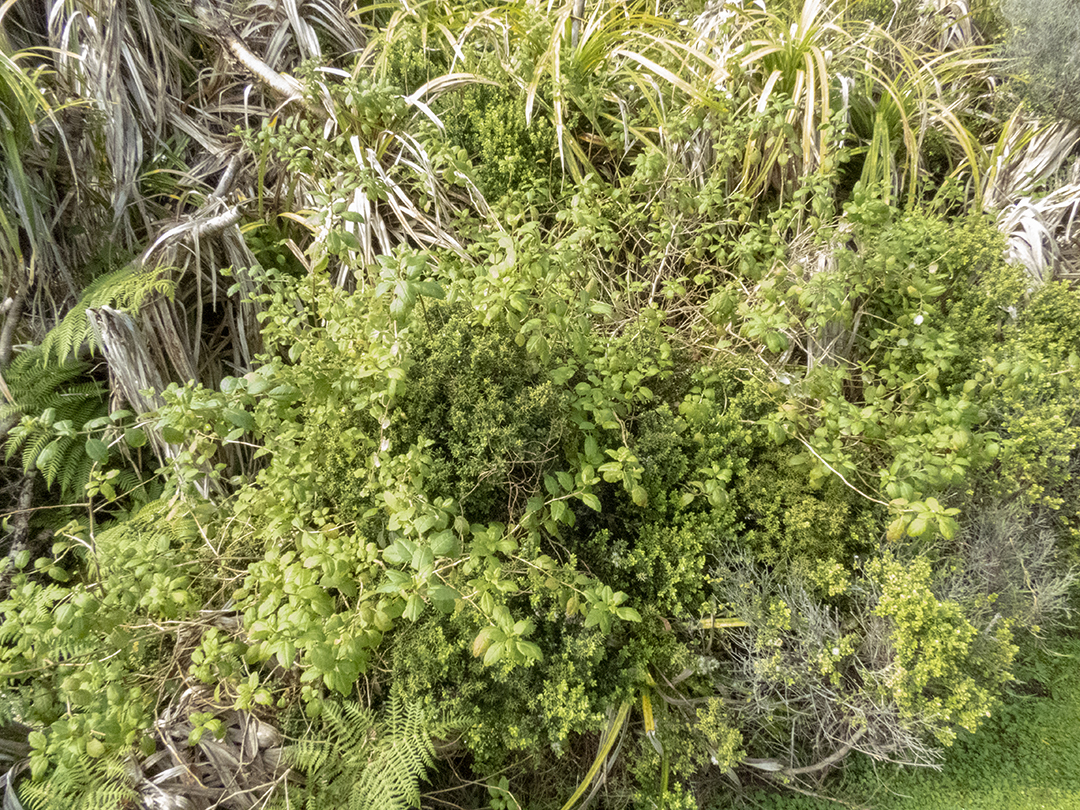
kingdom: Plantae
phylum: Tracheophyta
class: Magnoliopsida
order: Myrtales
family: Onagraceae
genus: Fuchsia
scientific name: Fuchsia colensoi
